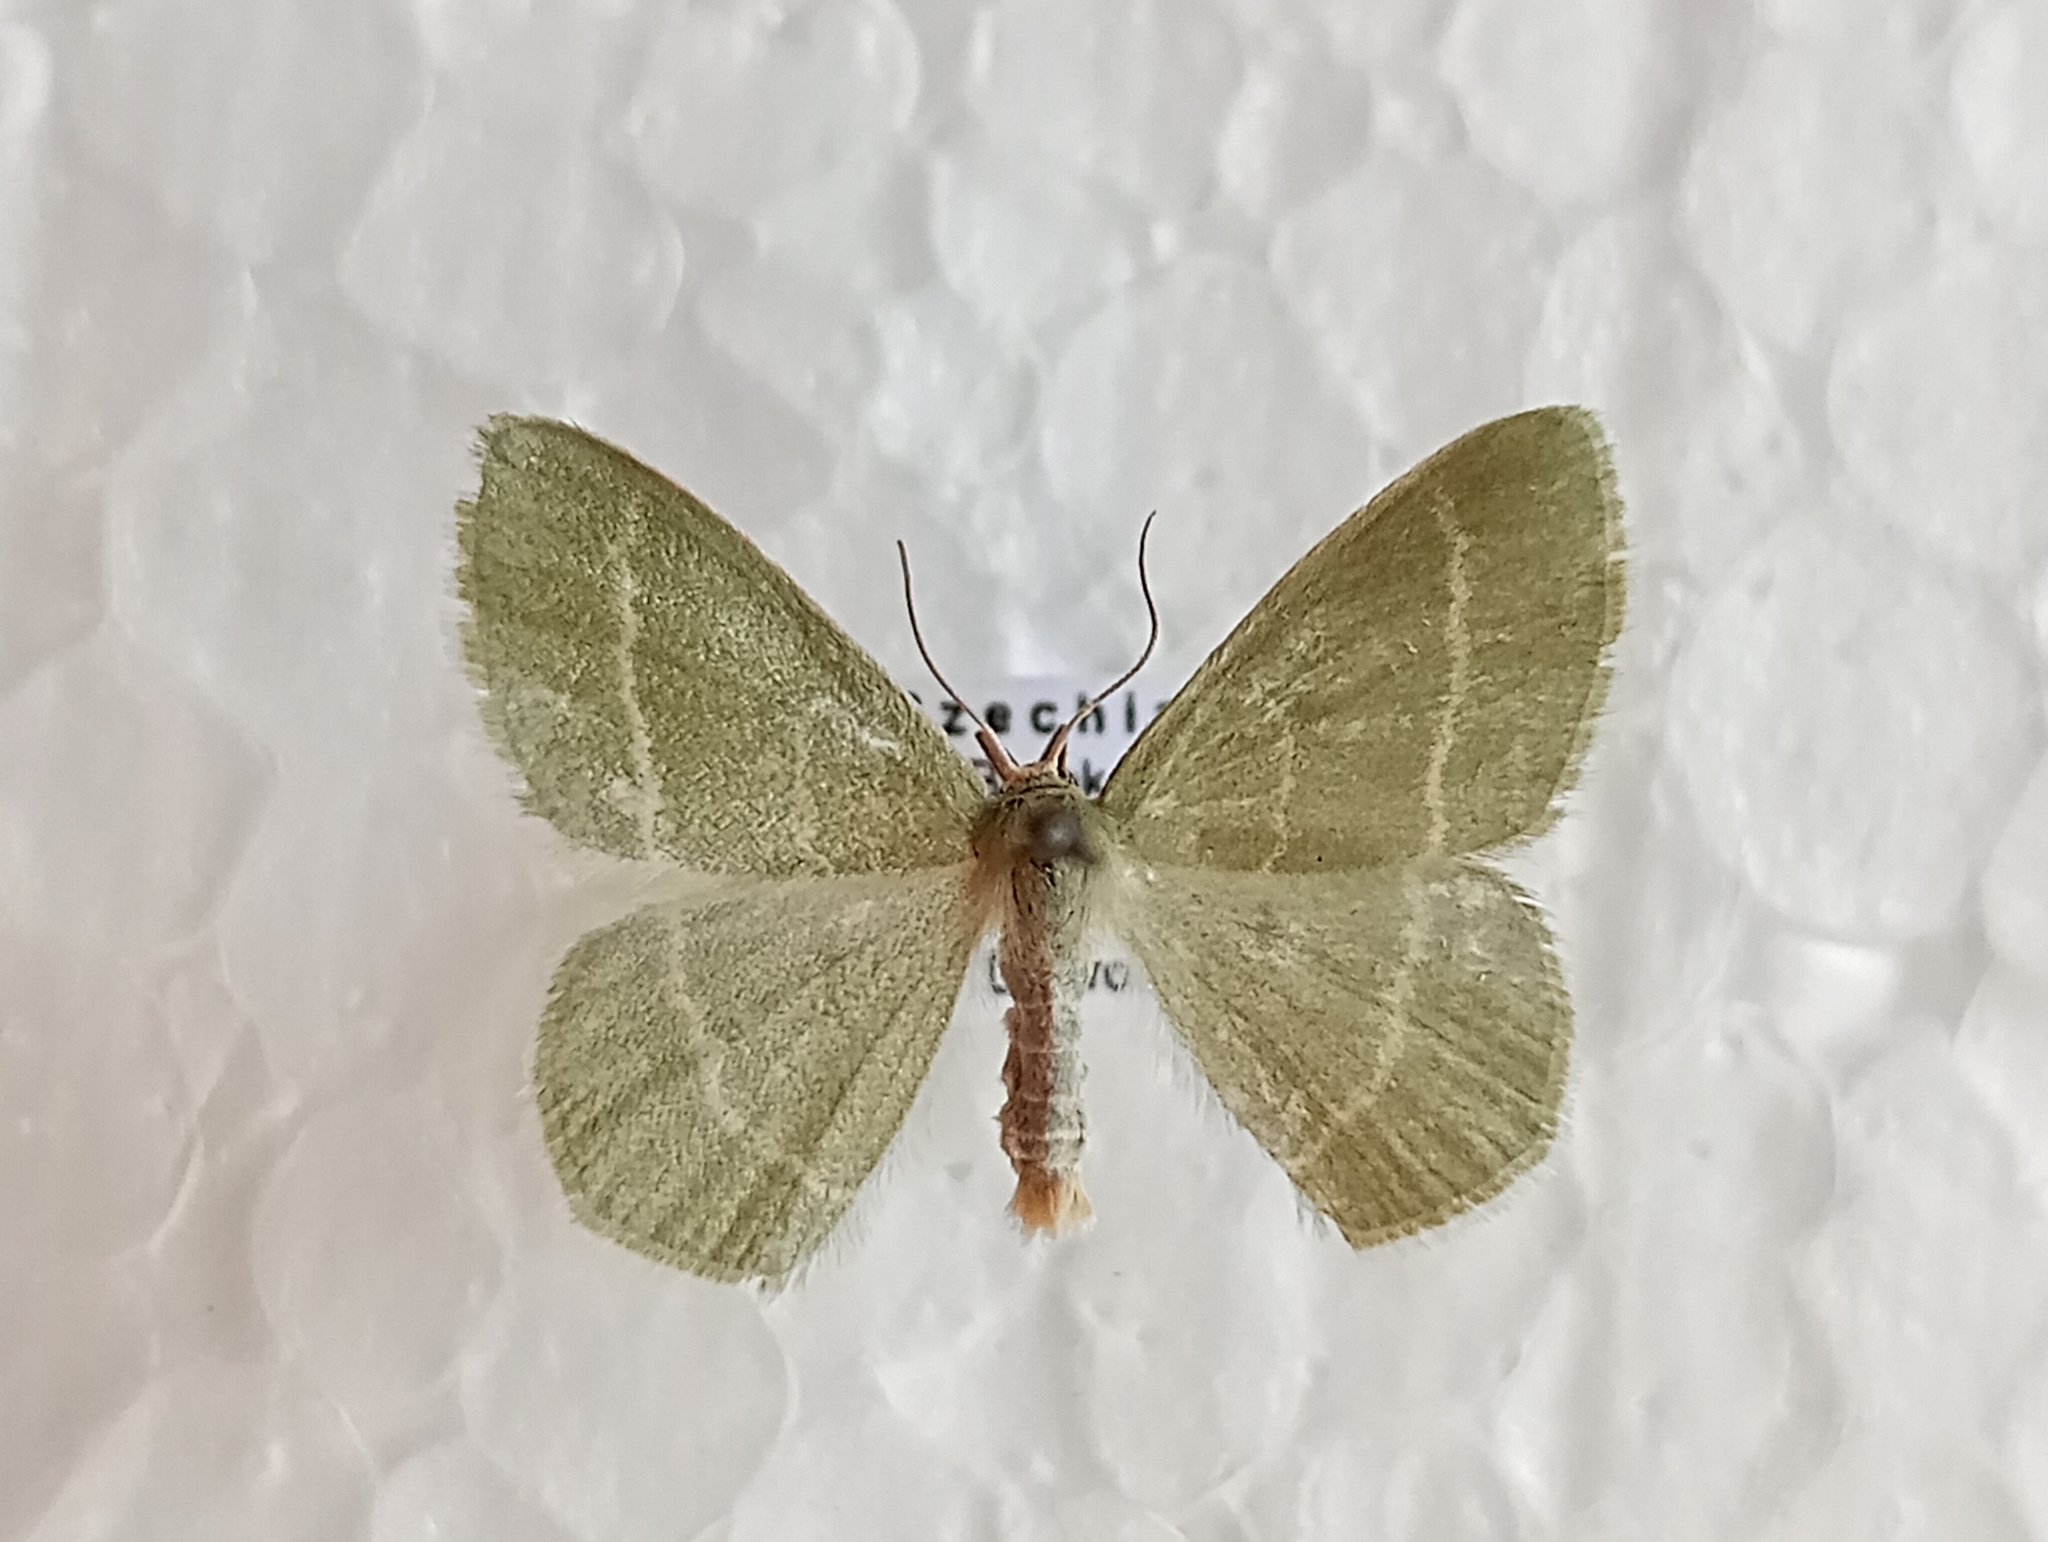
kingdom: Animalia
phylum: Arthropoda
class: Insecta
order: Lepidoptera
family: Geometridae
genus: Chlorissa
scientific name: Chlorissa cloraria
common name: Southern grass emerald
